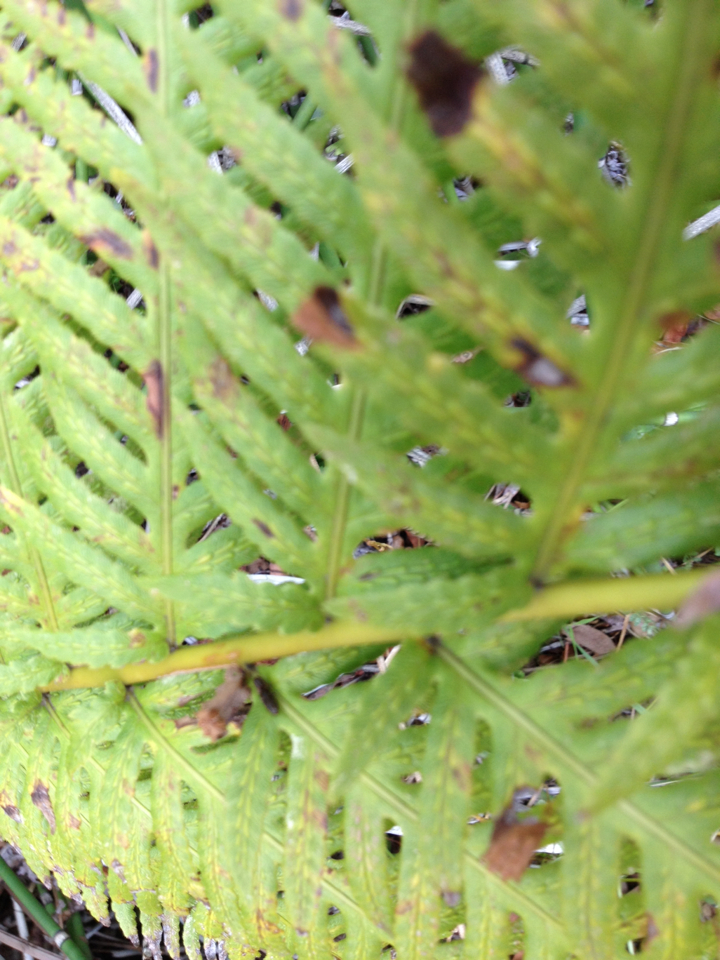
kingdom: Plantae
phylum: Tracheophyta
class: Polypodiopsida
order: Polypodiales
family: Blechnaceae
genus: Woodwardia
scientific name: Woodwardia fimbriata
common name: Giant chain fern
